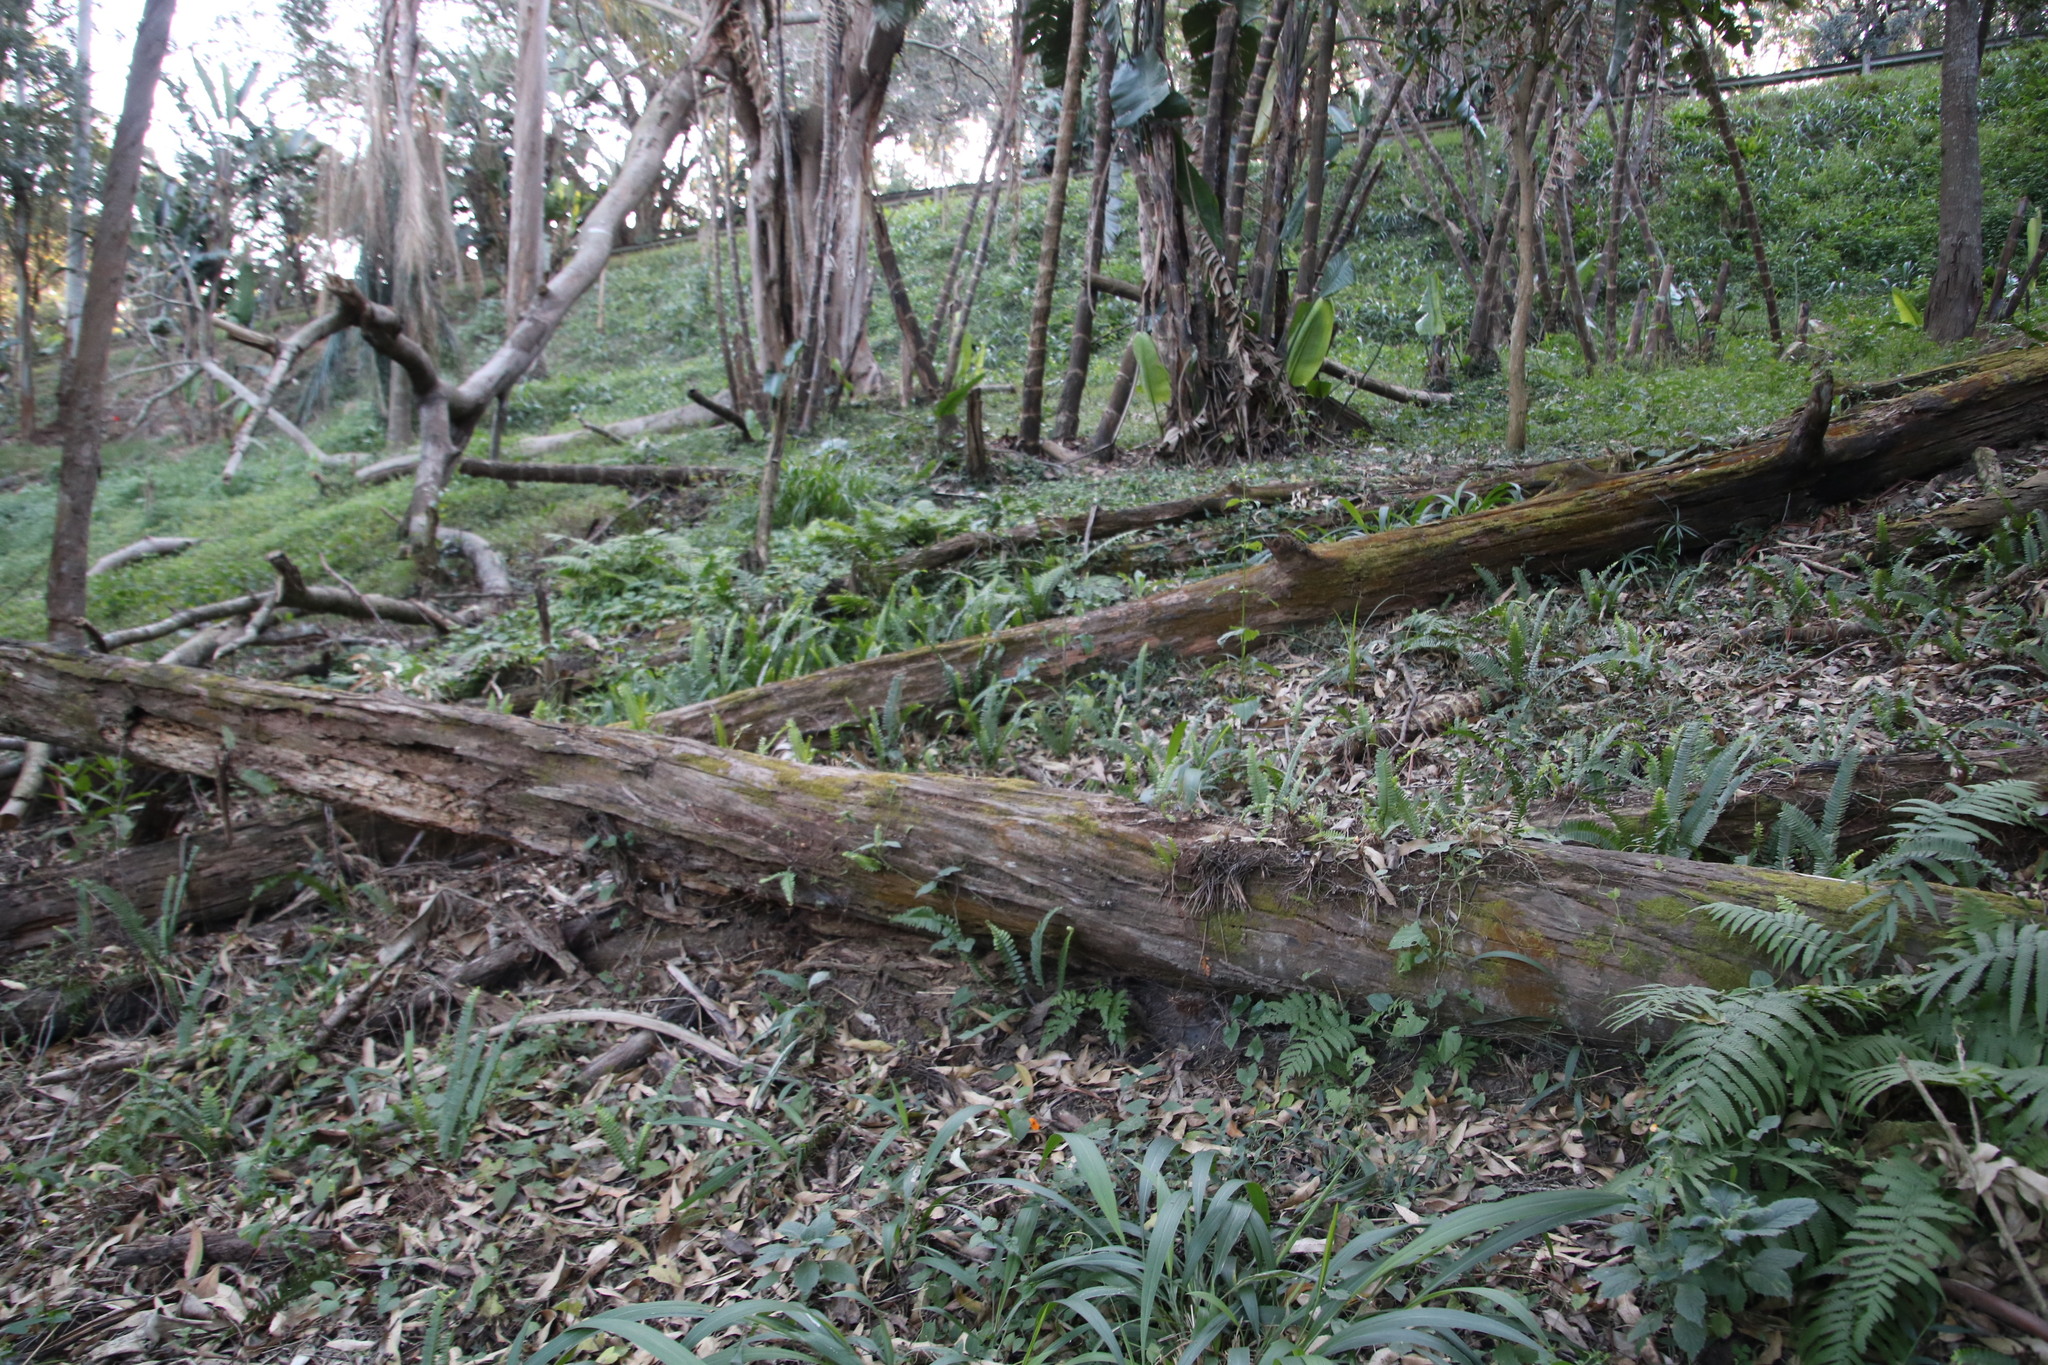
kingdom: Plantae
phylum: Tracheophyta
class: Polypodiopsida
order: Polypodiales
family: Nephrolepidaceae
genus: Nephrolepis
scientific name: Nephrolepis cordifolia
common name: Narrow swordfern
